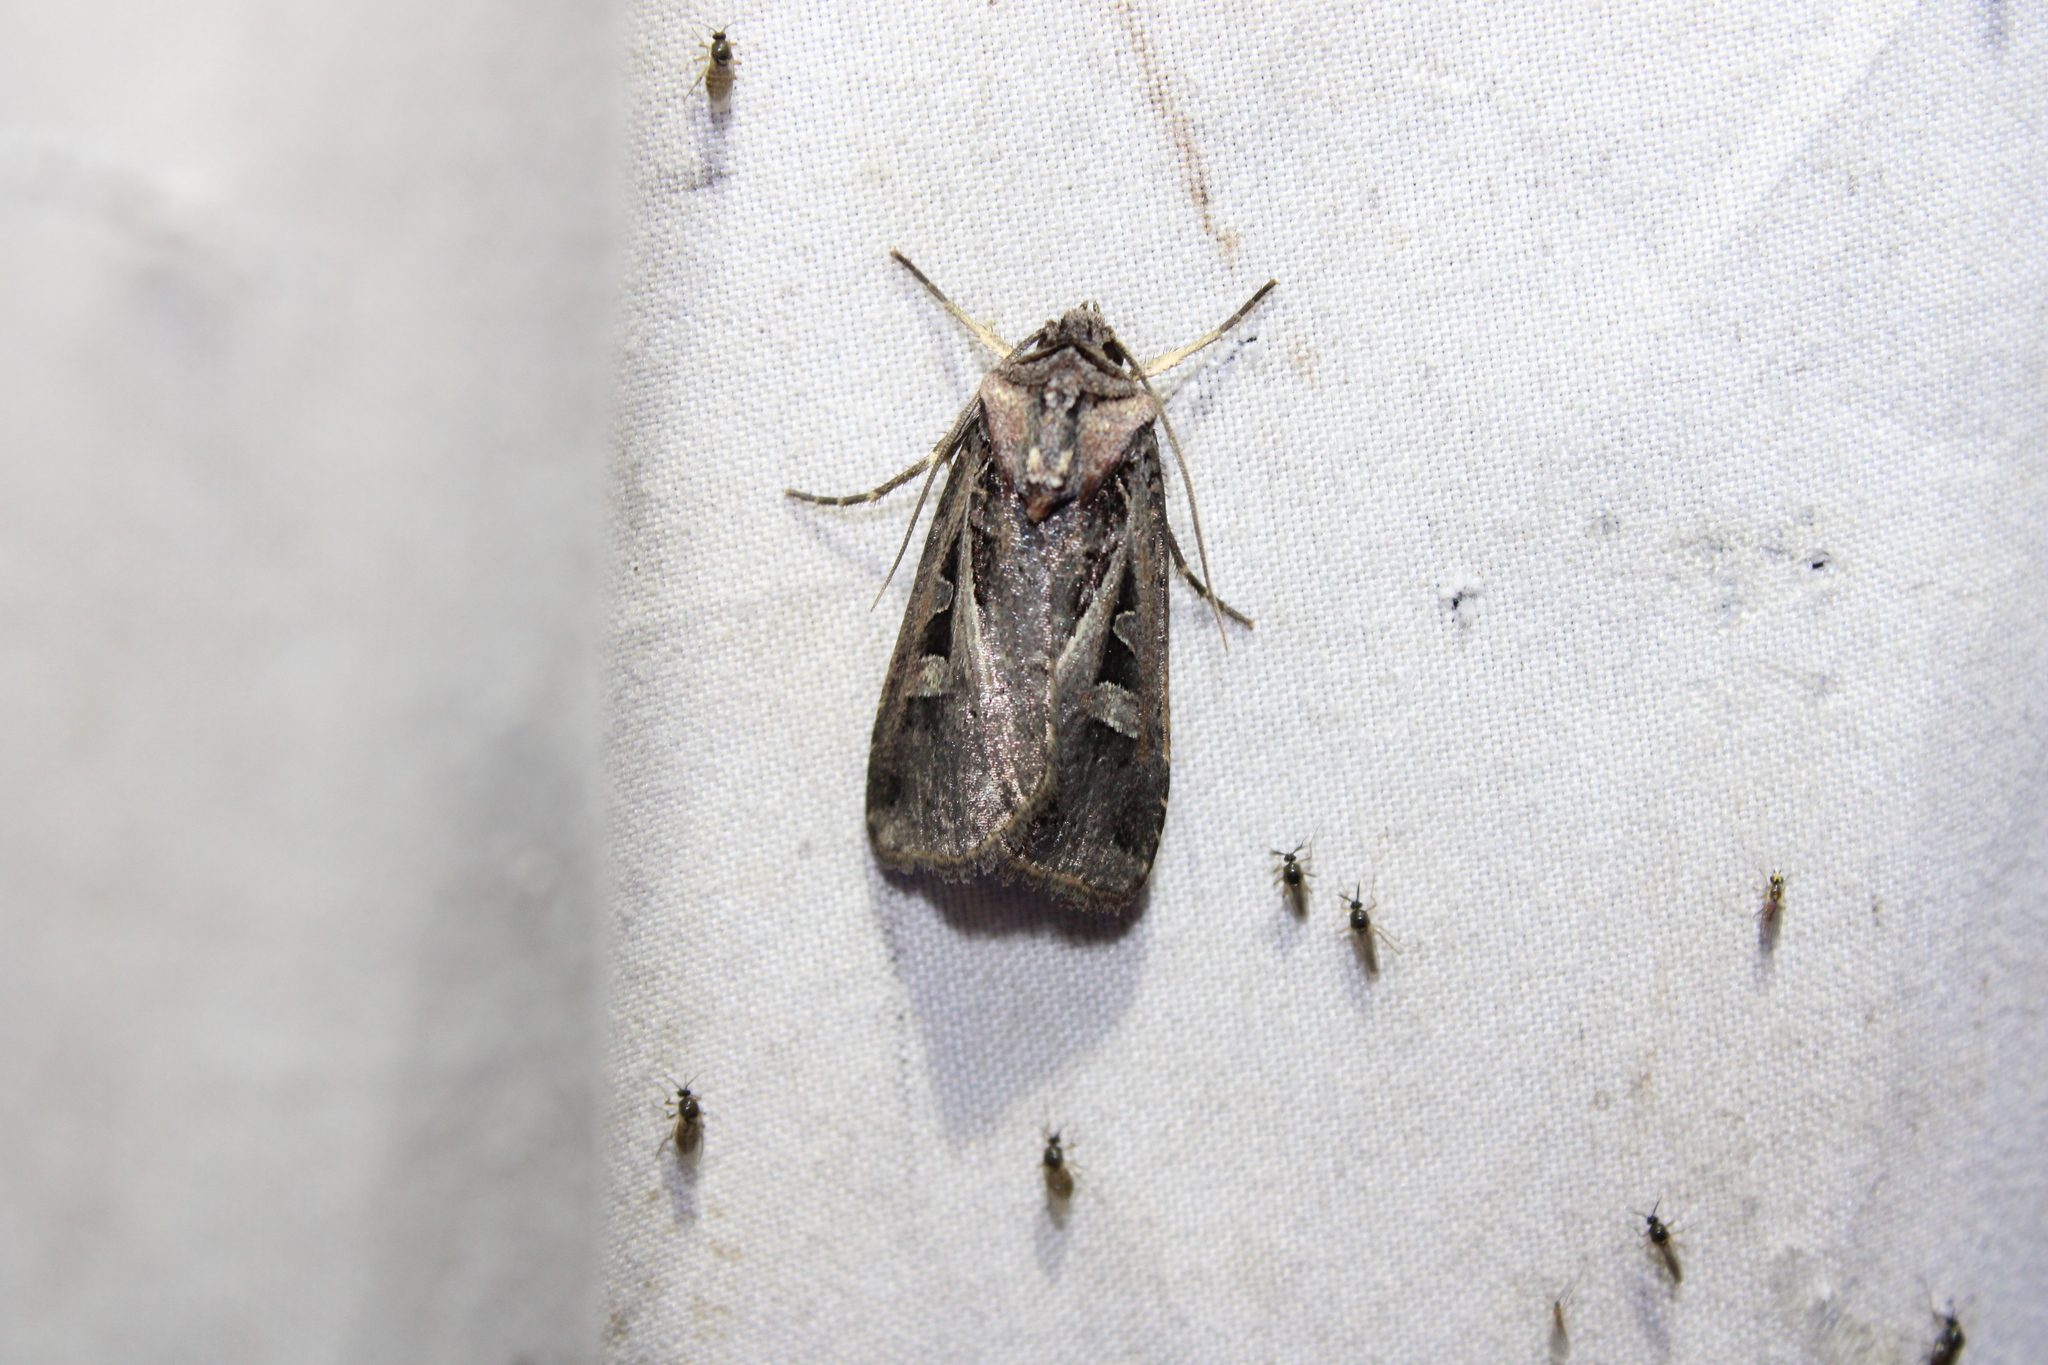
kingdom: Animalia
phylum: Arthropoda
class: Insecta
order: Lepidoptera
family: Noctuidae
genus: Feltia
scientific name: Feltia herilis
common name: Master's dart
